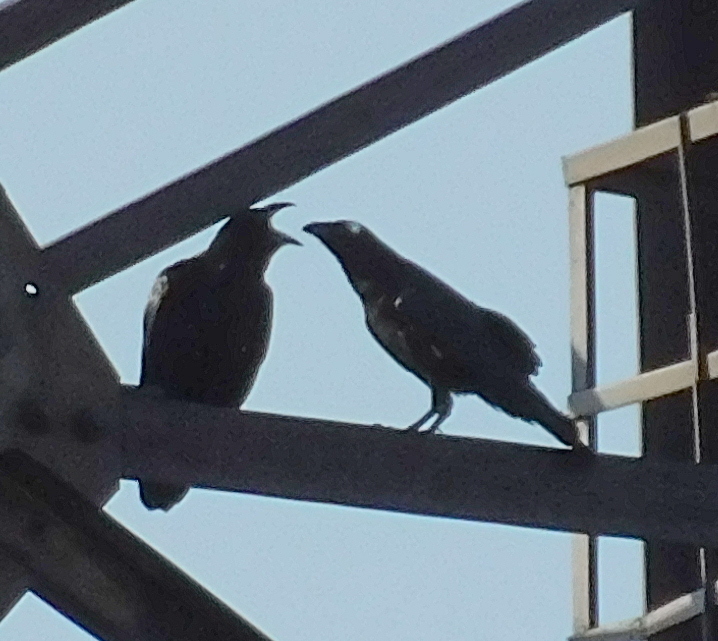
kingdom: Animalia
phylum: Chordata
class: Aves
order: Passeriformes
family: Corvidae
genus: Corvus
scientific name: Corvus corax
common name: Common raven
